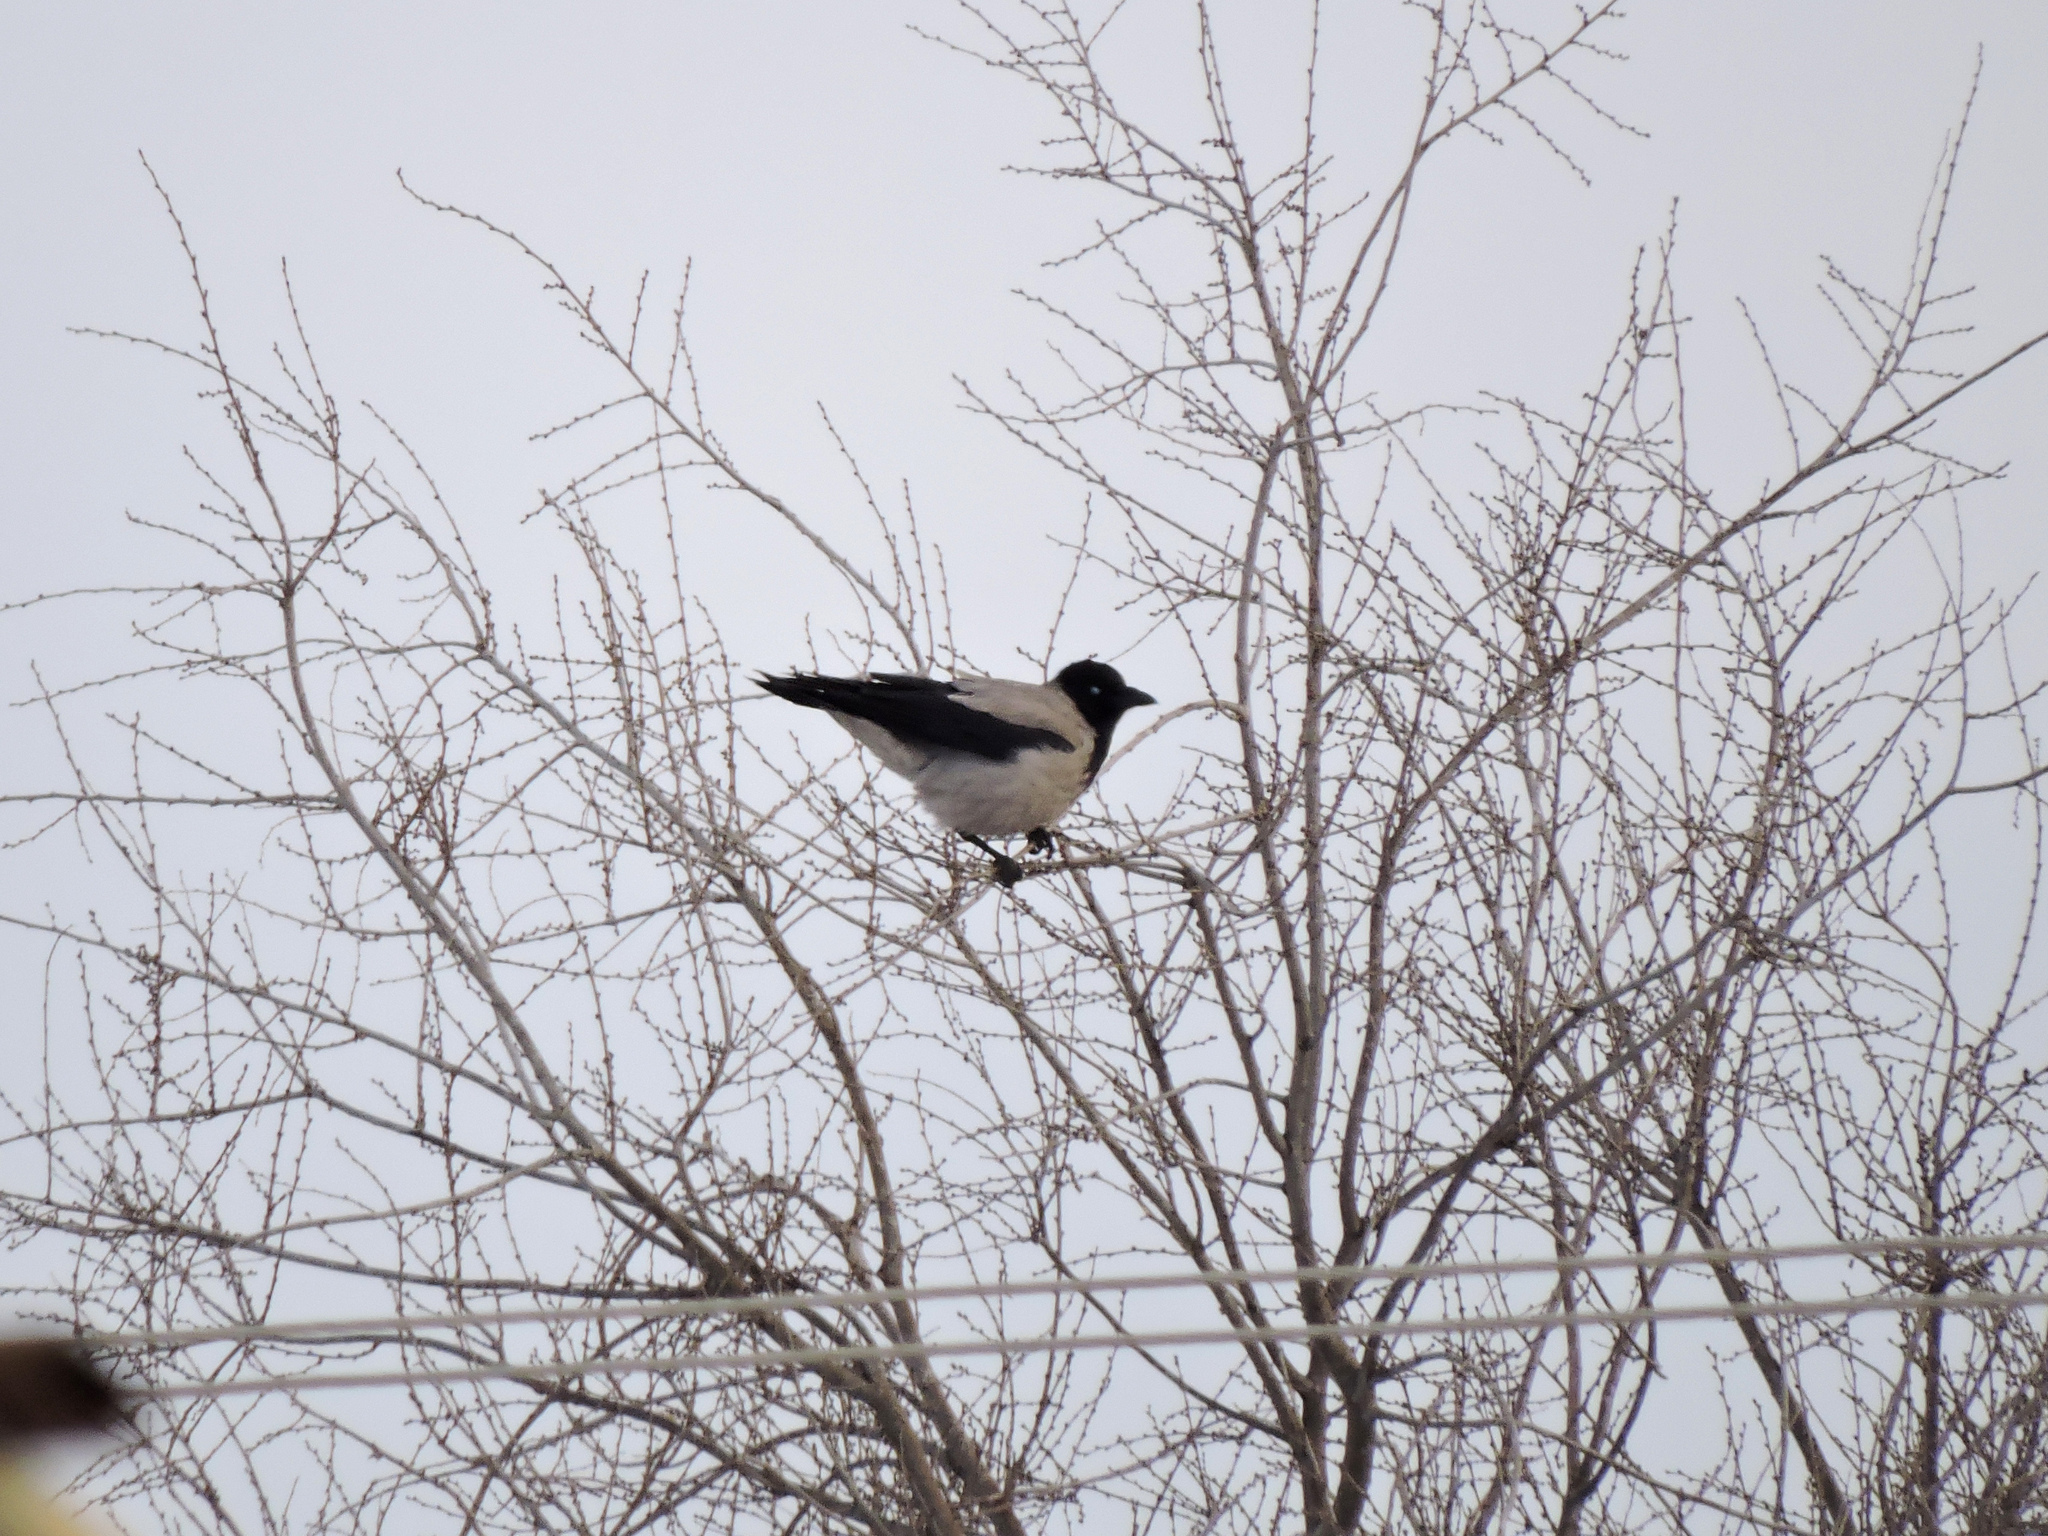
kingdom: Animalia
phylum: Chordata
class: Aves
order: Passeriformes
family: Corvidae
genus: Corvus
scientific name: Corvus cornix
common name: Hooded crow
